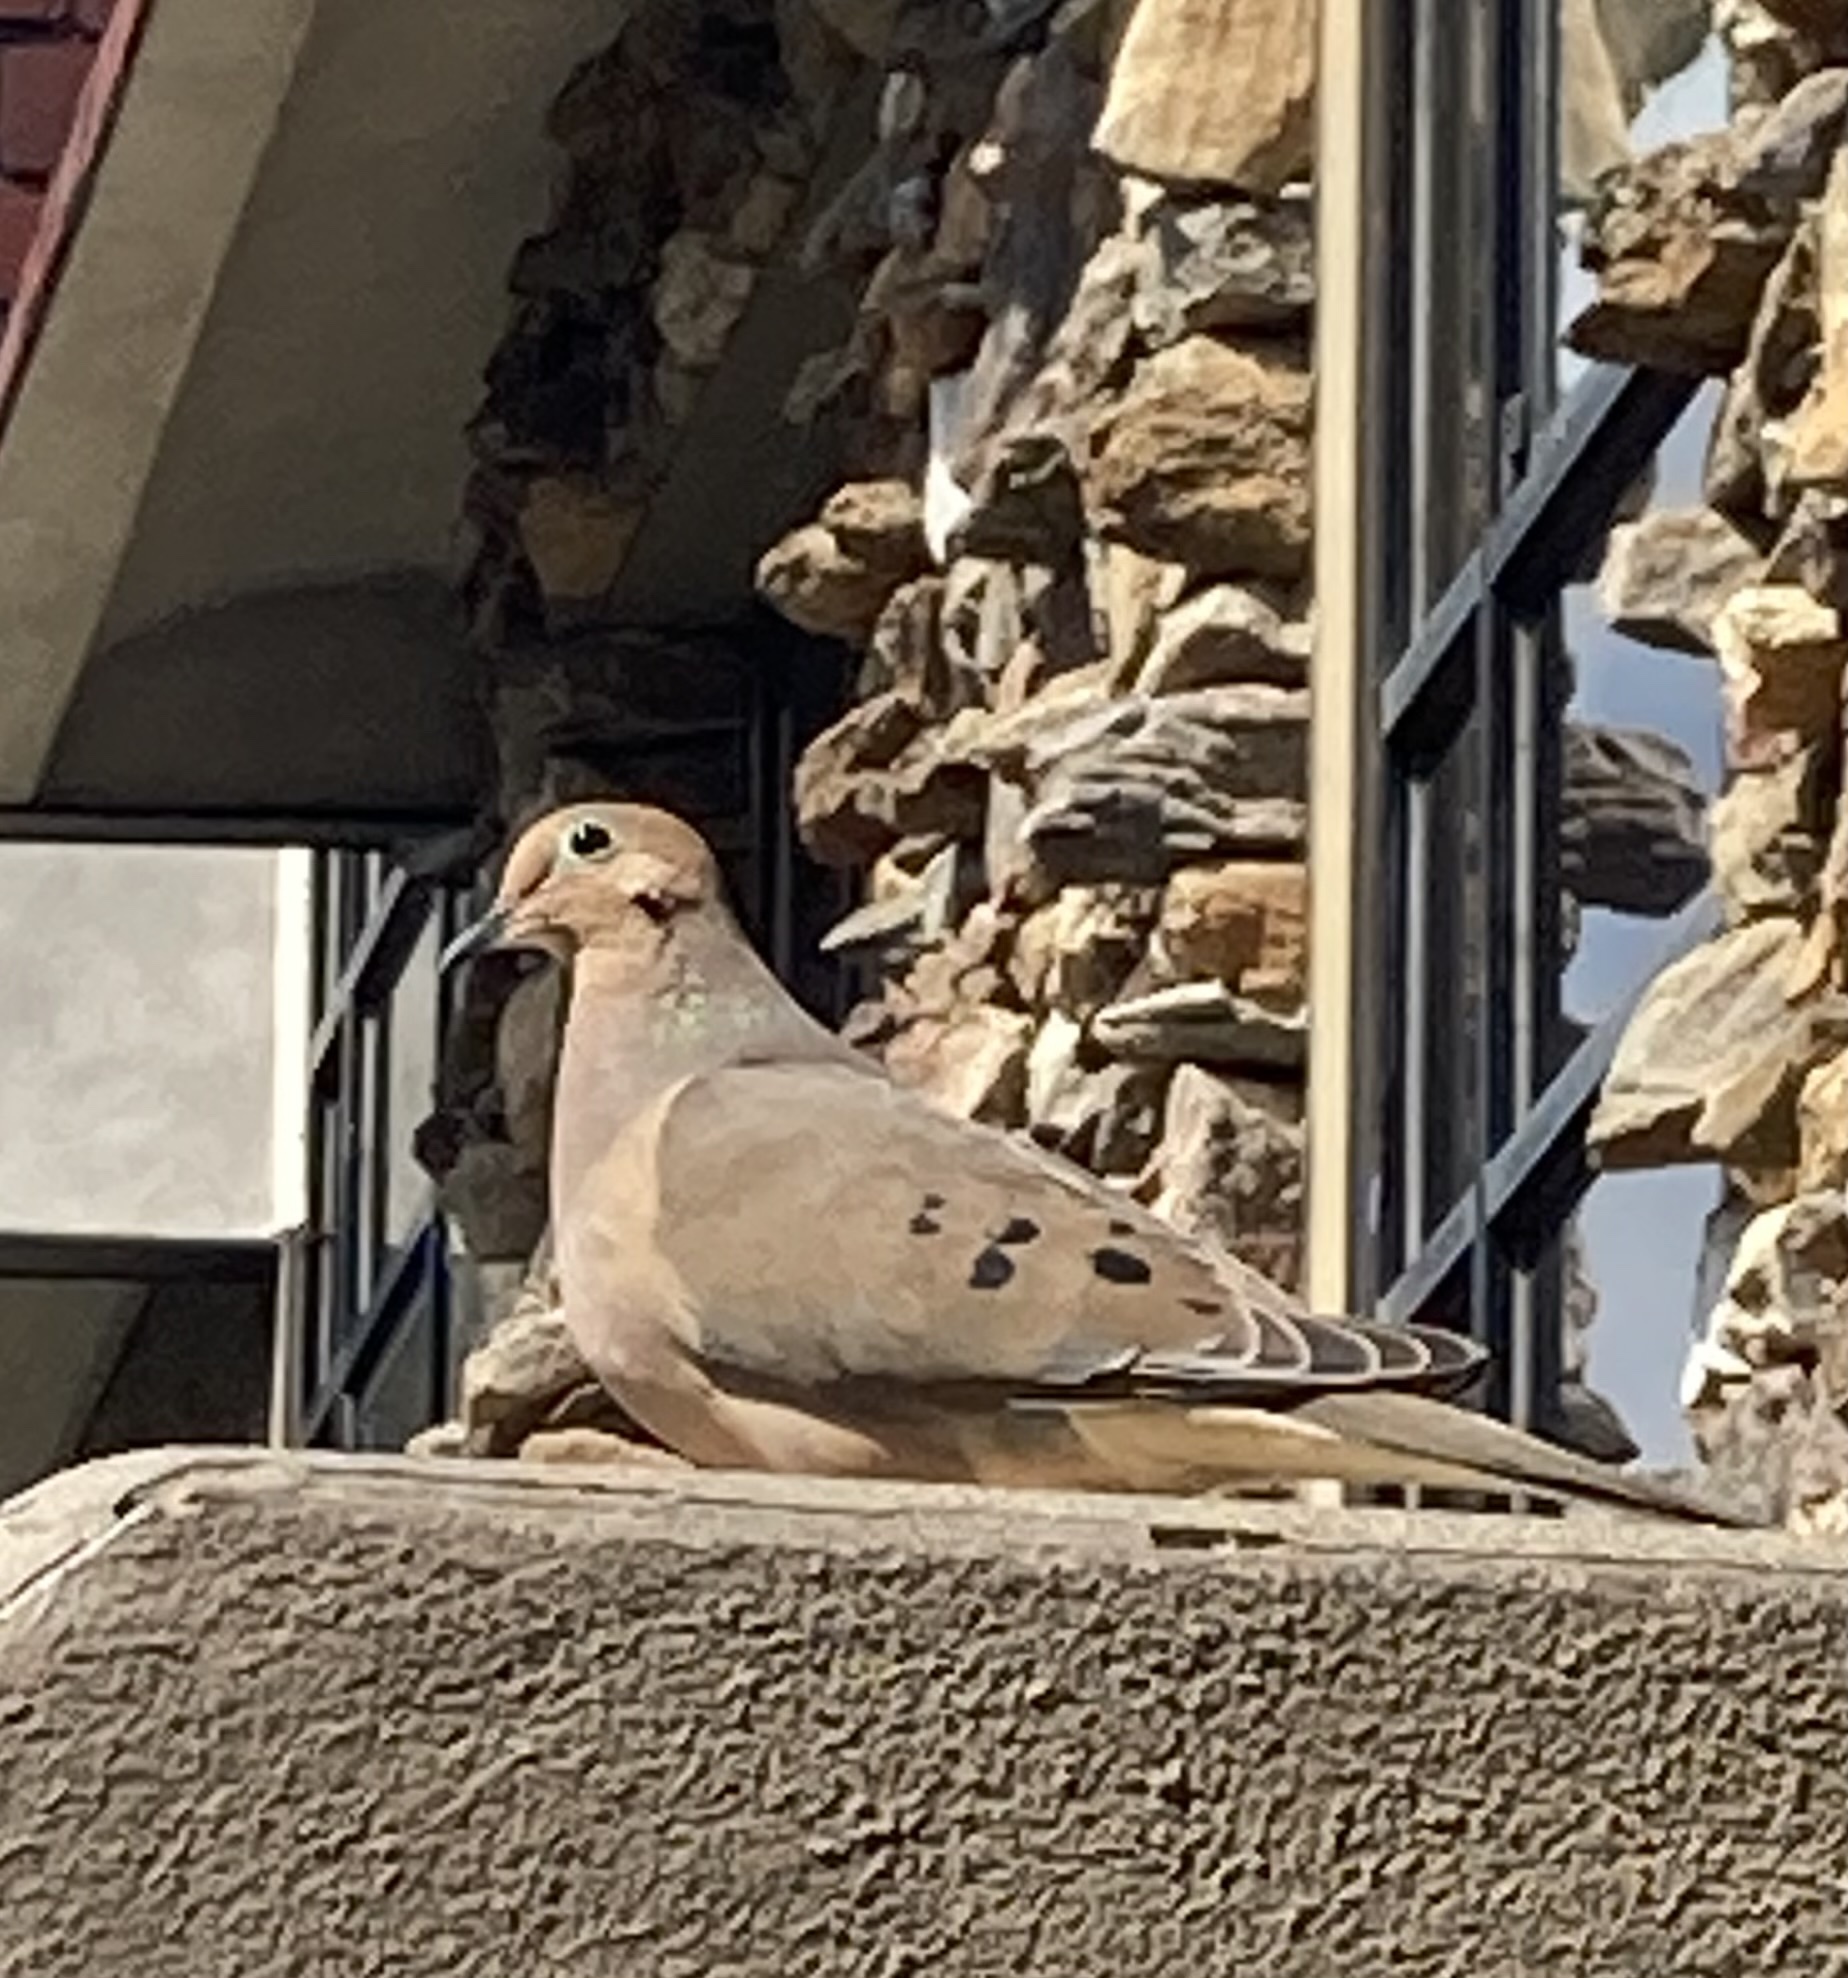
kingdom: Animalia
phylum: Chordata
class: Aves
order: Columbiformes
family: Columbidae
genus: Zenaida
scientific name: Zenaida macroura
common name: Mourning dove
